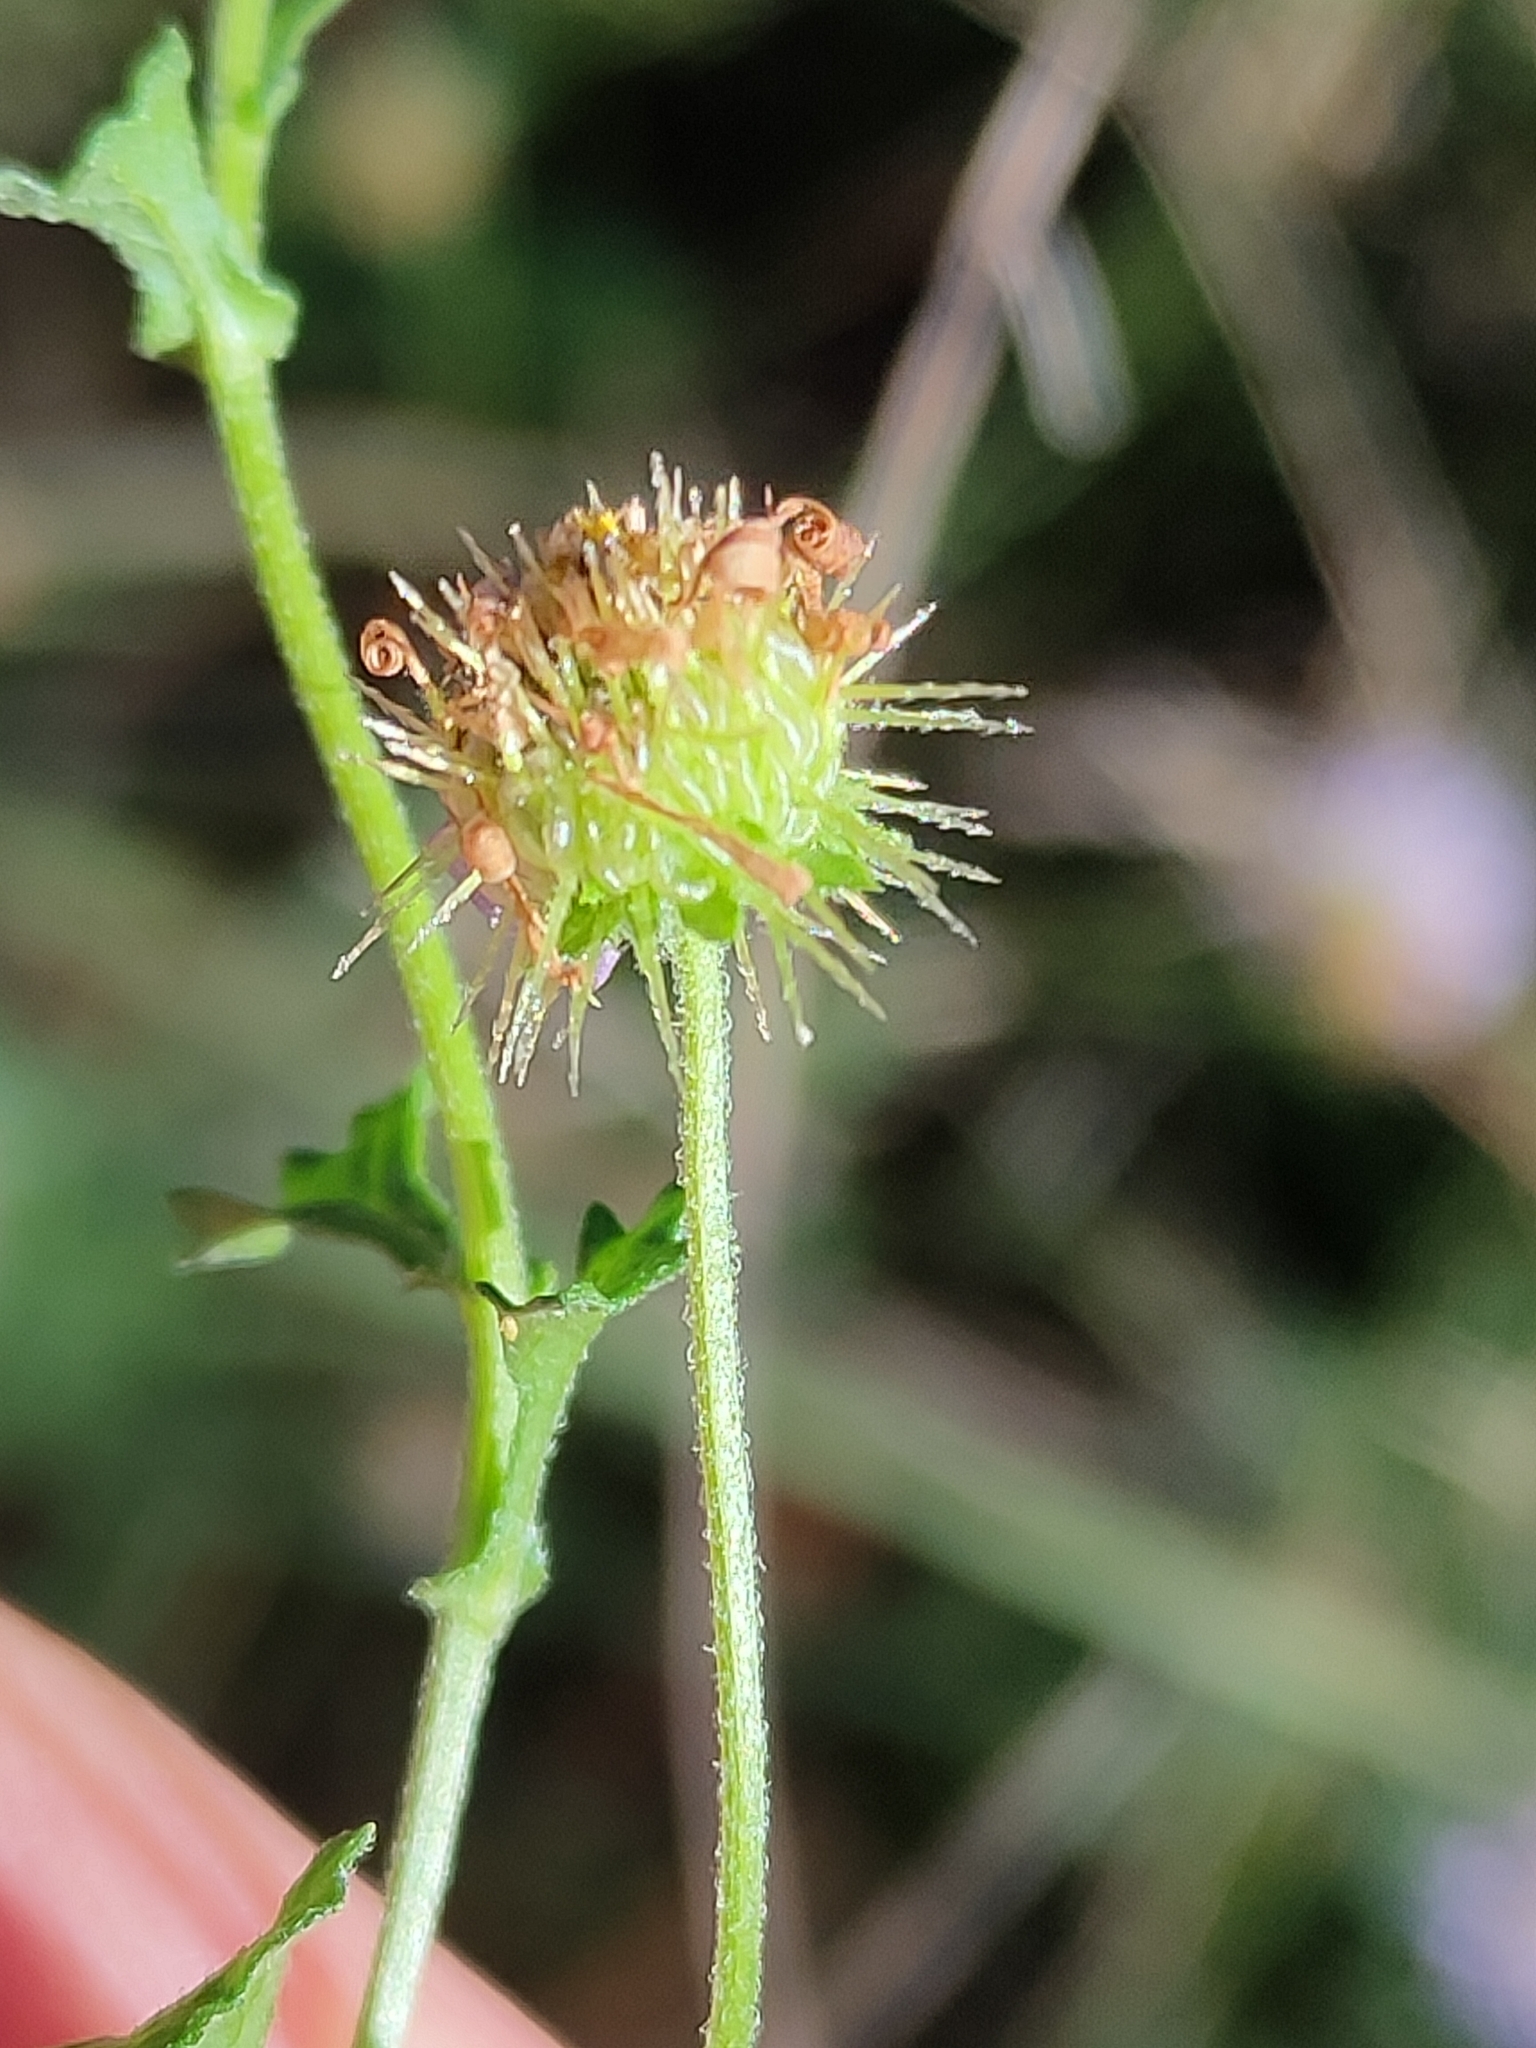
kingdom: Plantae
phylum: Tracheophyta
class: Magnoliopsida
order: Asterales
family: Asteraceae
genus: Calotis
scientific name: Calotis cuneifolia
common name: Bur-daisy
